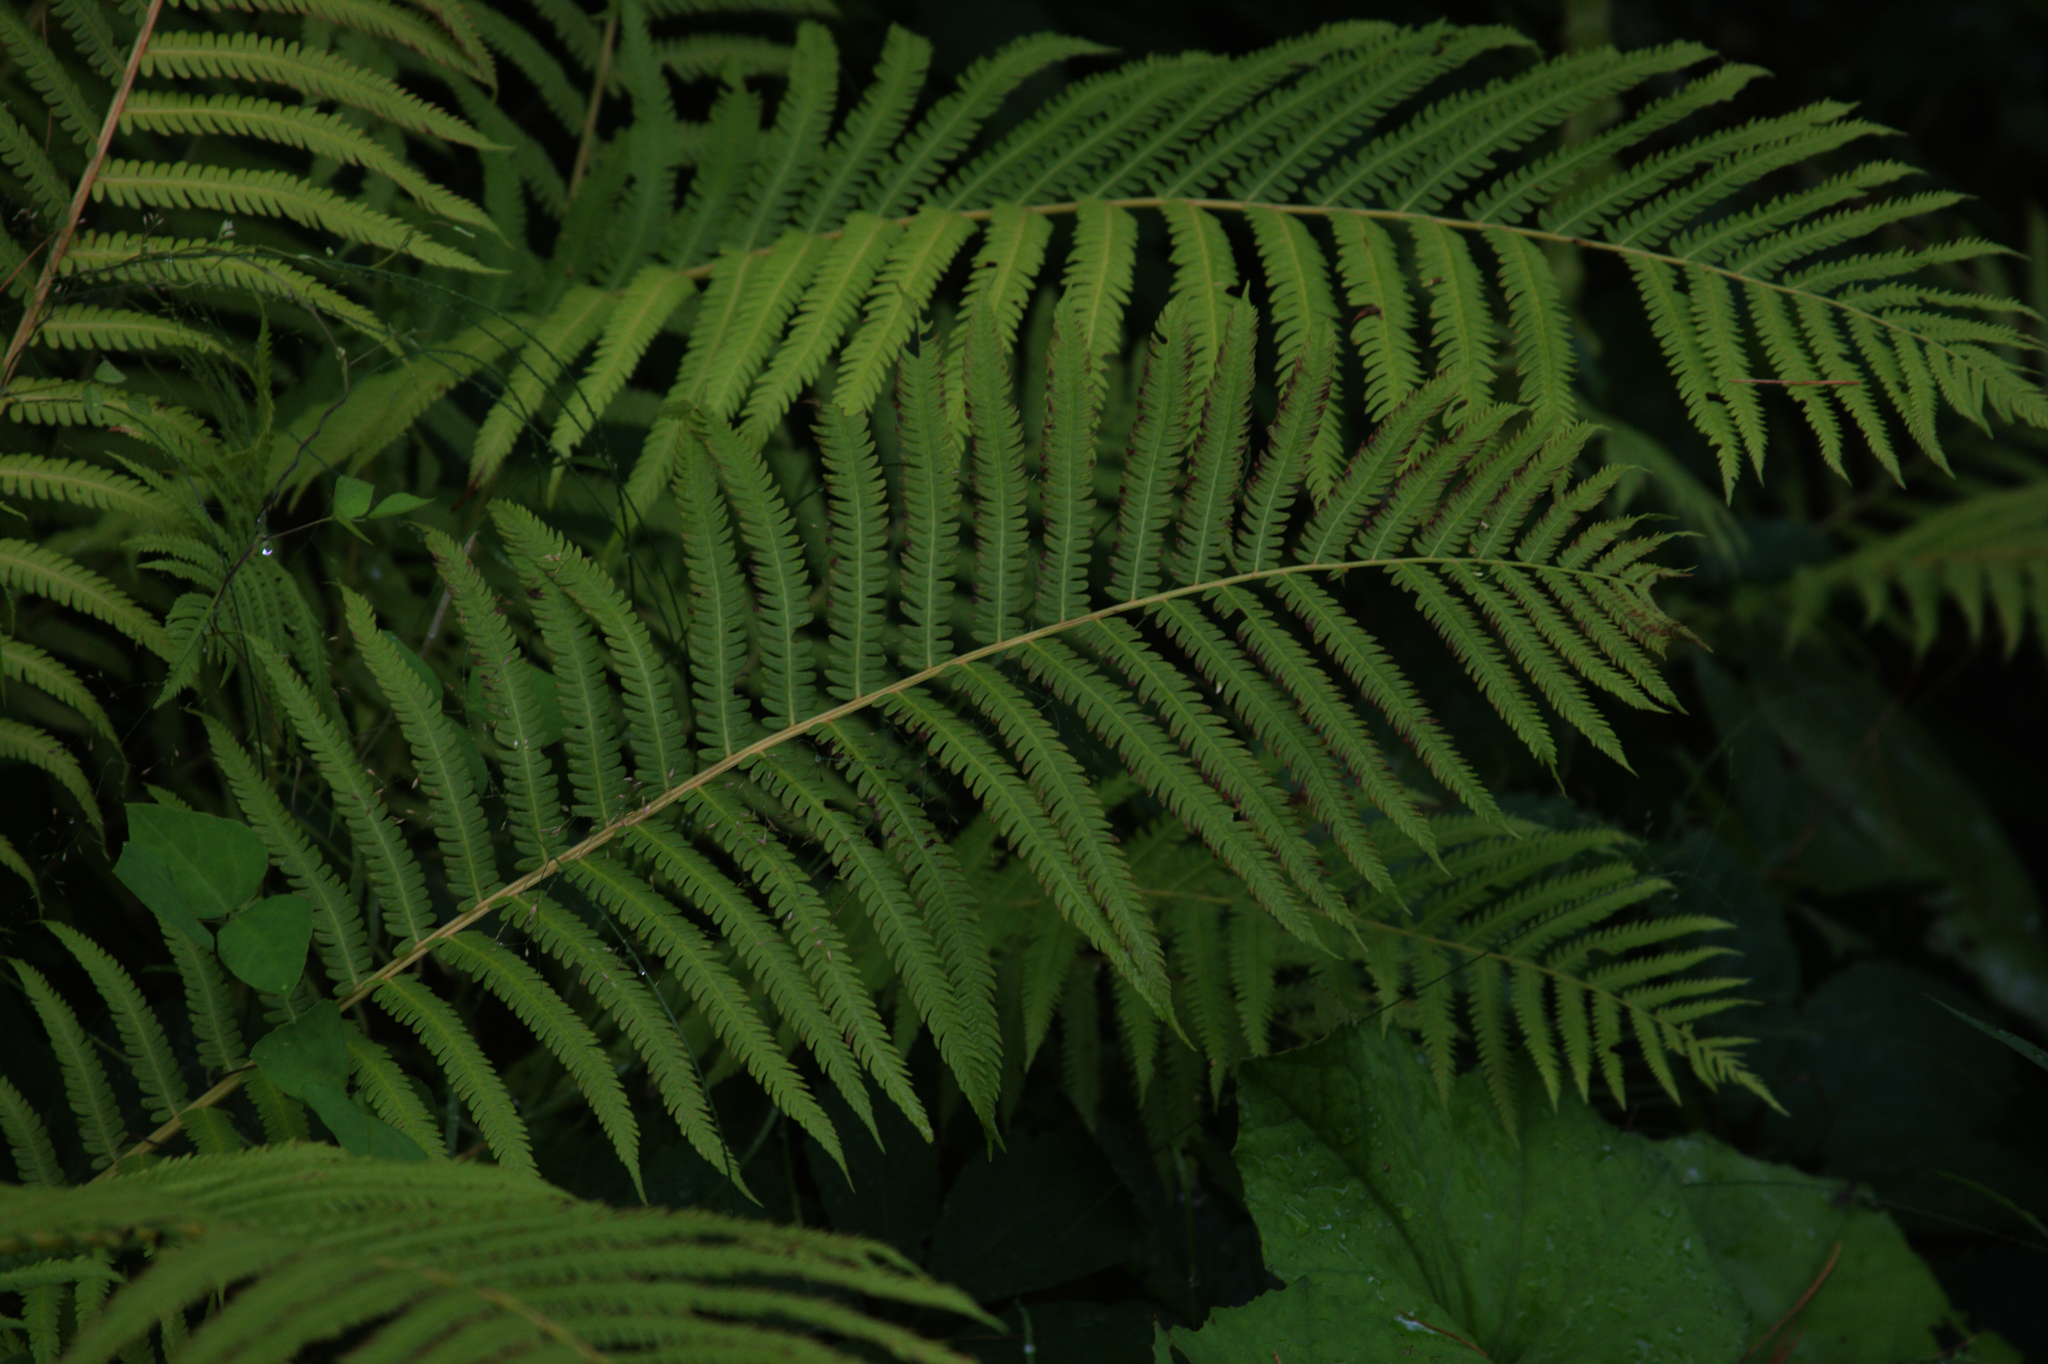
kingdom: Plantae
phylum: Tracheophyta
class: Polypodiopsida
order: Polypodiales
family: Onocleaceae
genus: Matteuccia
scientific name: Matteuccia struthiopteris
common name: Ostrich fern
